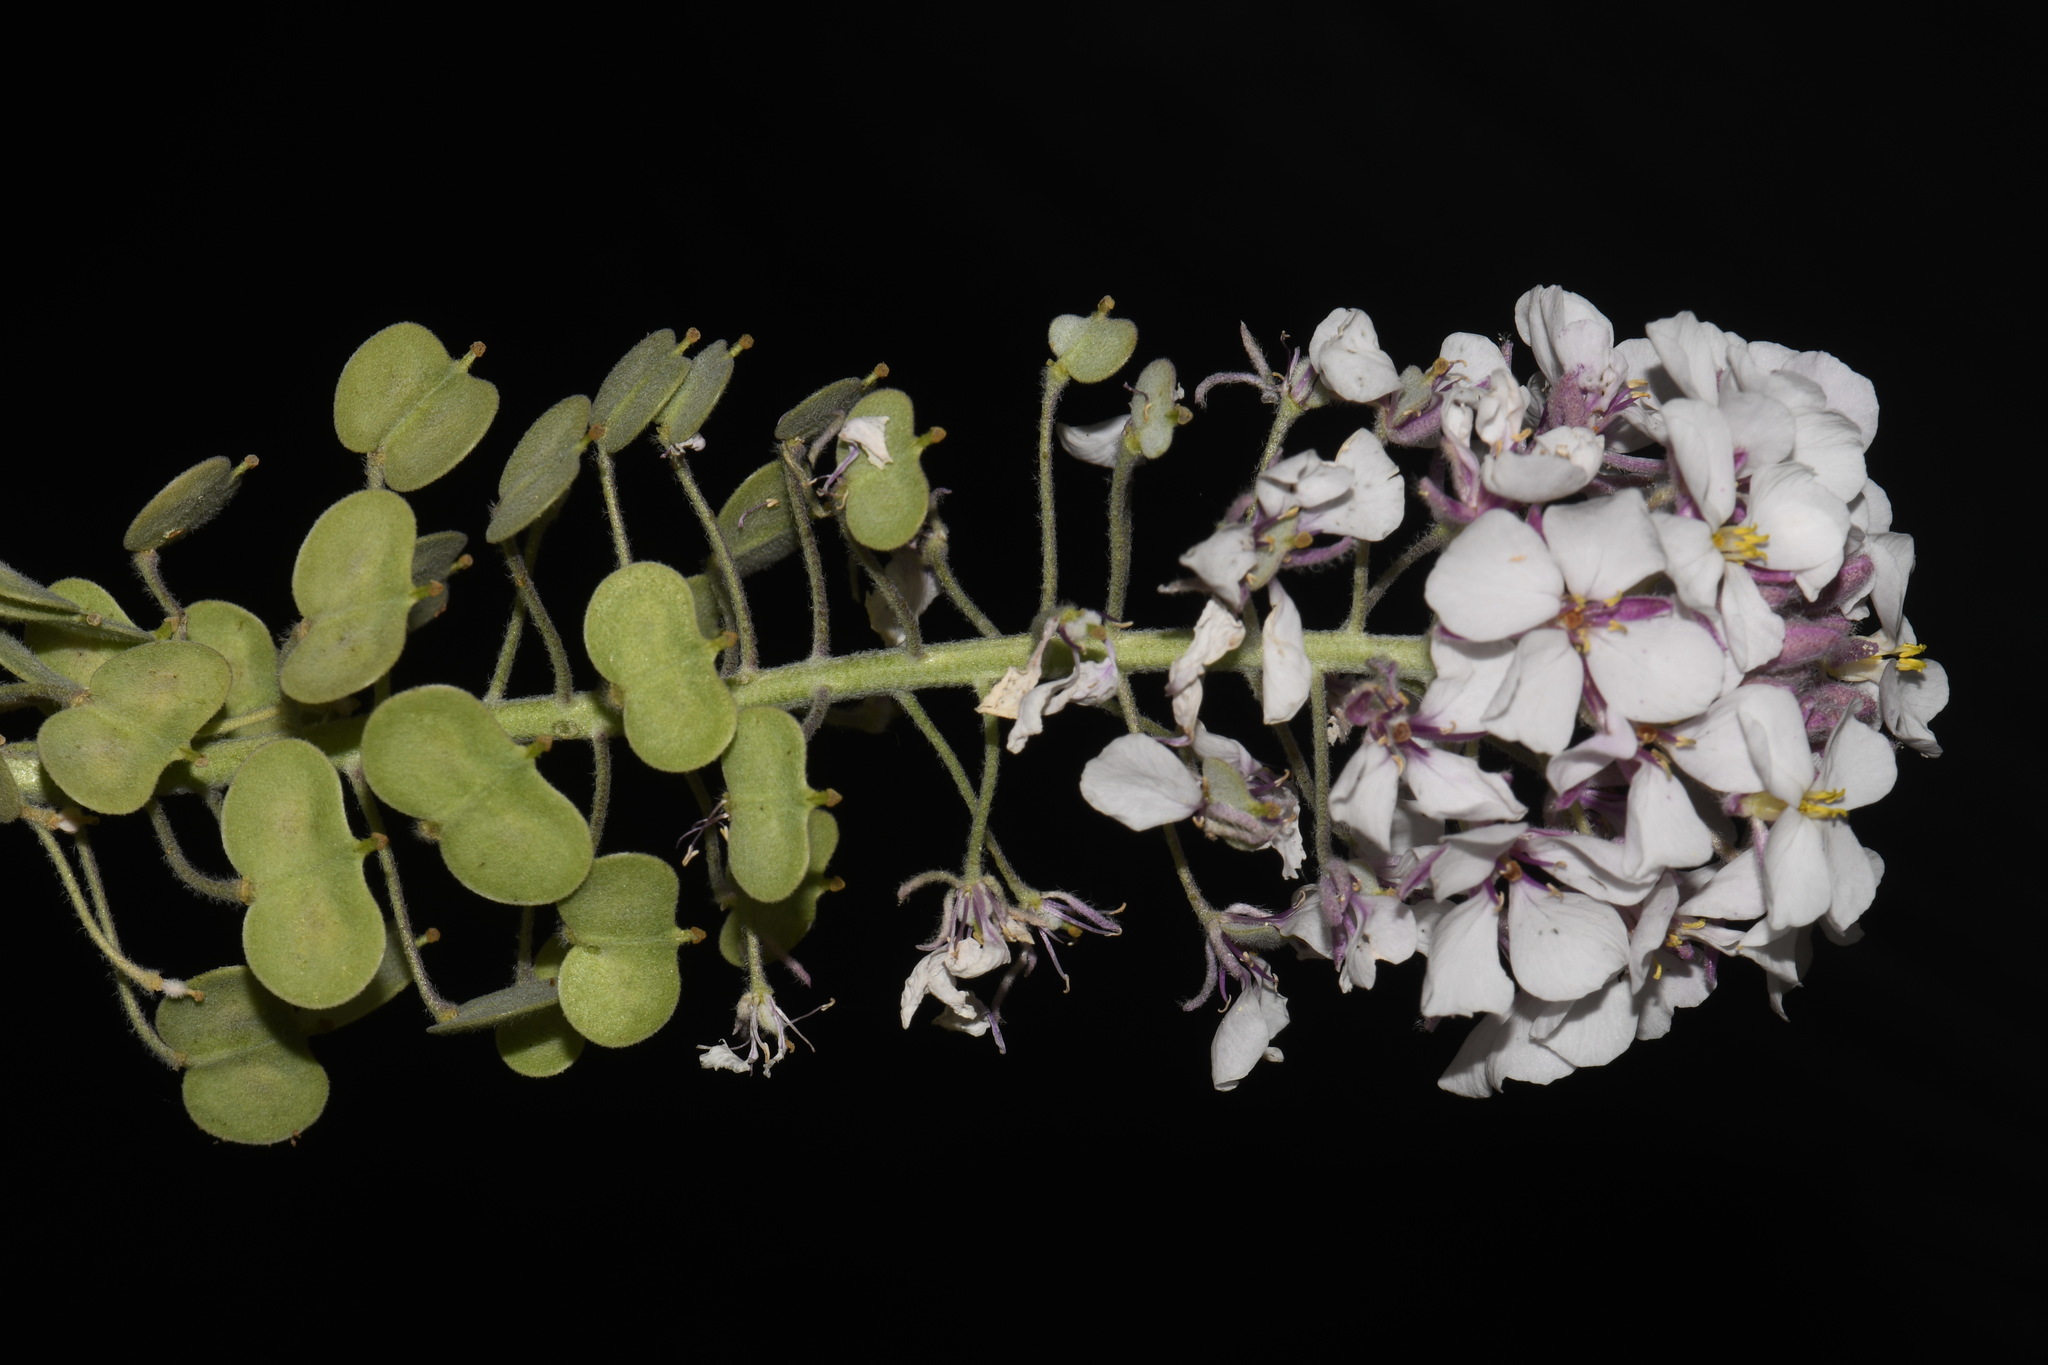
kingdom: Plantae
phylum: Tracheophyta
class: Magnoliopsida
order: Brassicales
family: Brassicaceae
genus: Dimorphocarpa
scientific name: Dimorphocarpa candicans
